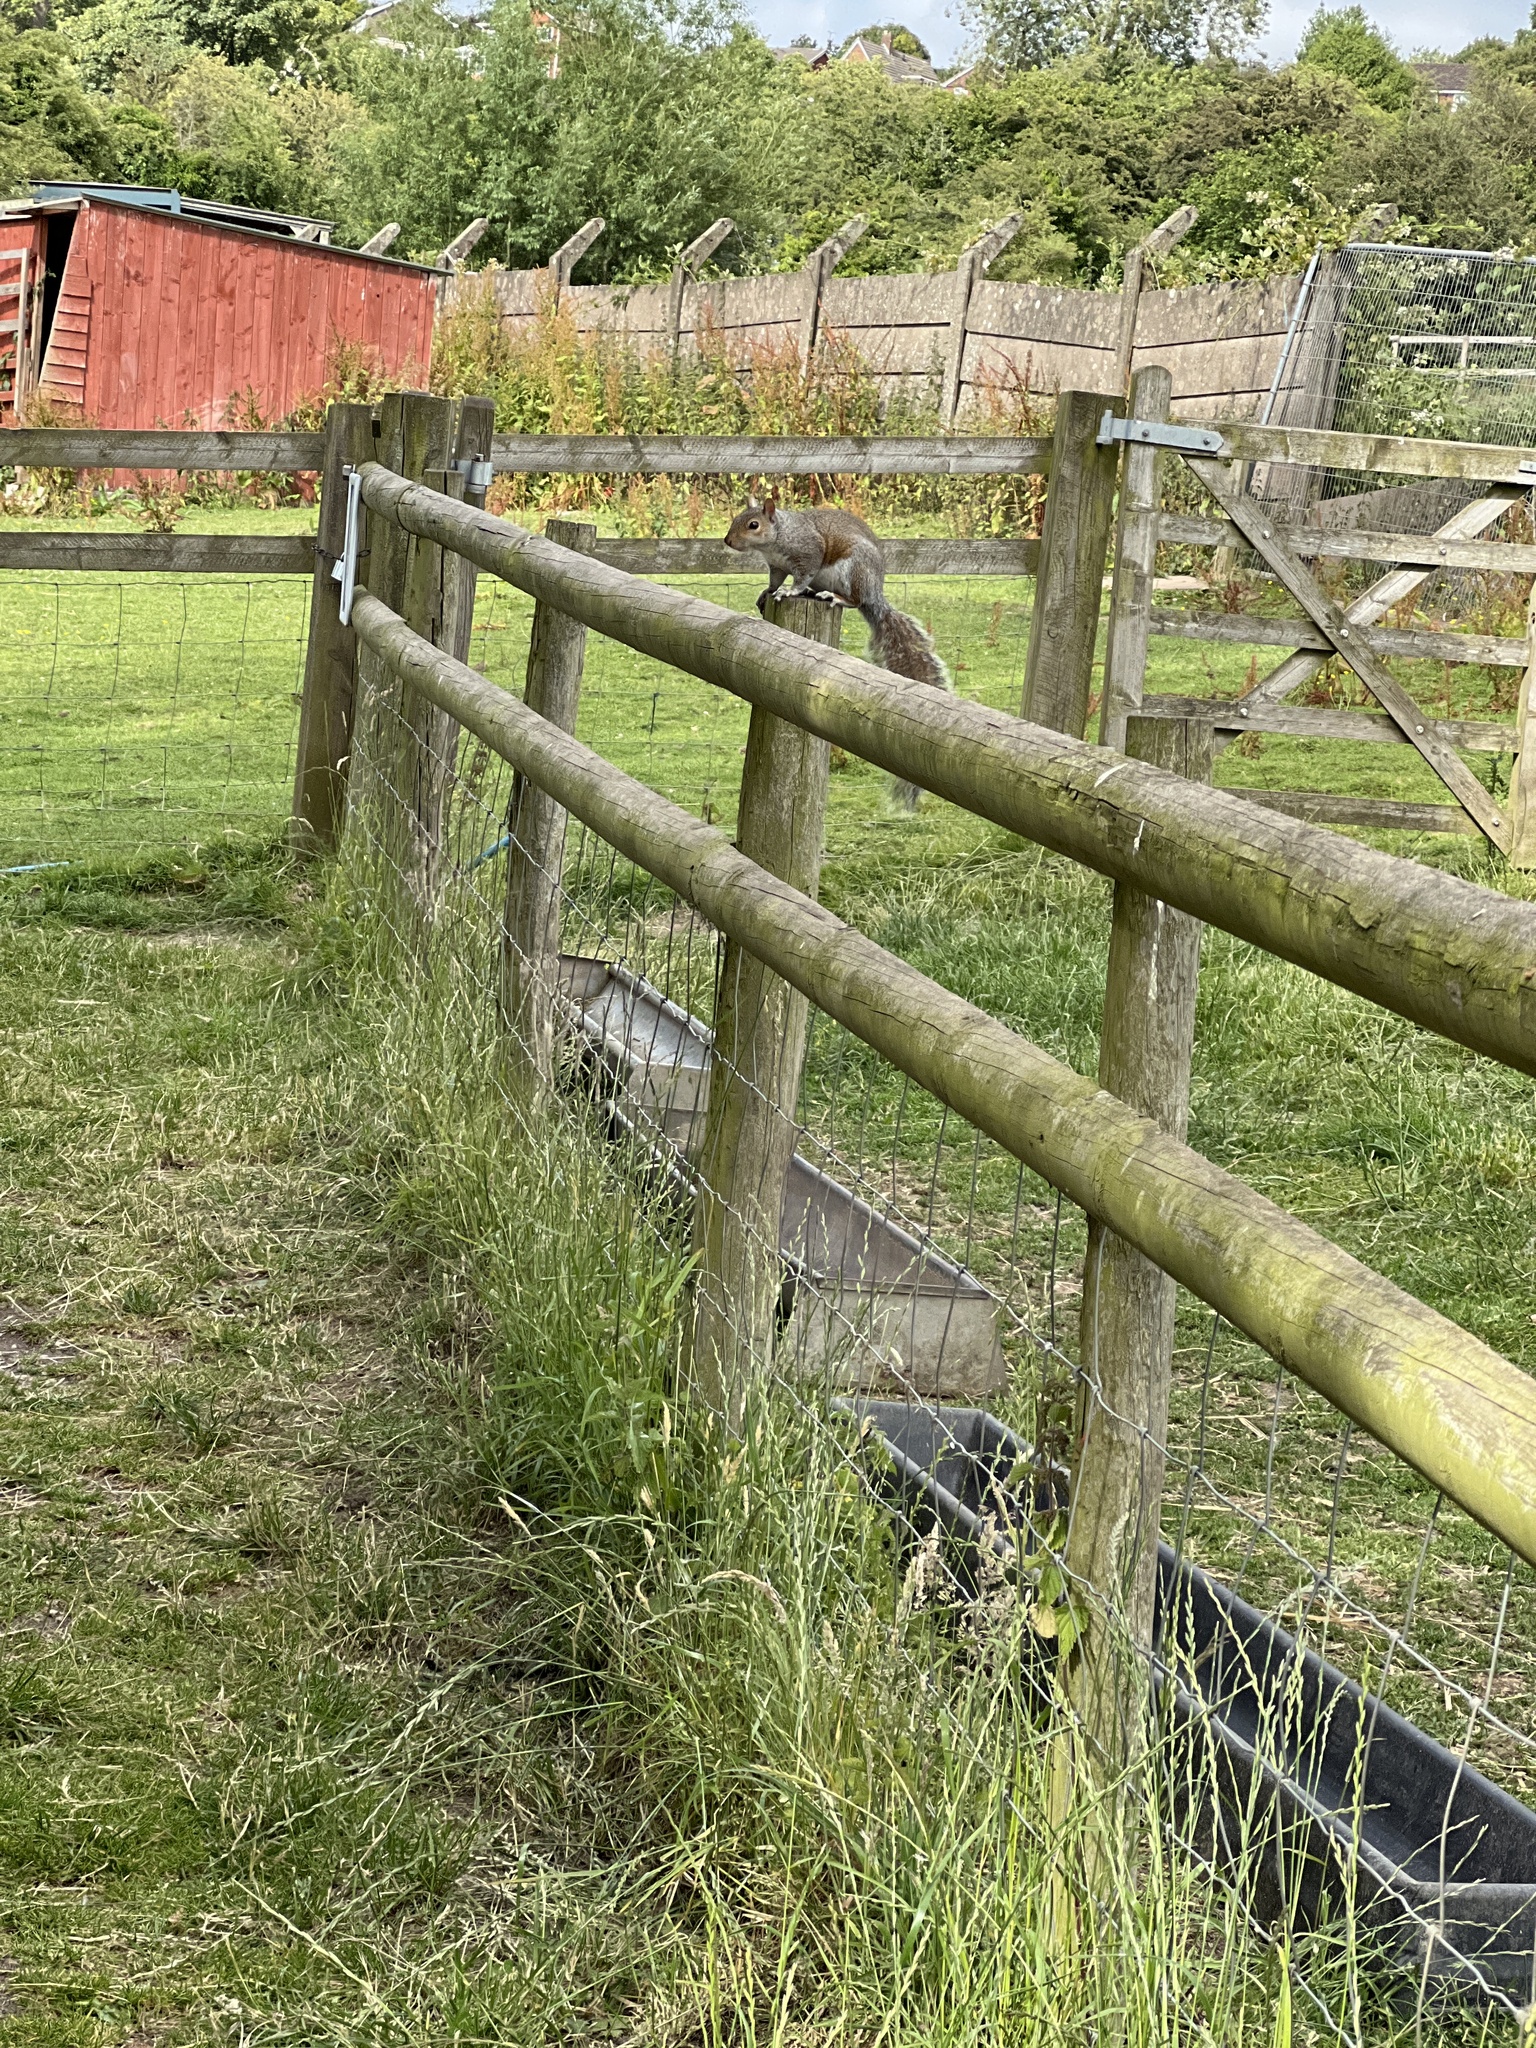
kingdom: Animalia
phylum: Chordata
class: Mammalia
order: Rodentia
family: Sciuridae
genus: Sciurus
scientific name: Sciurus carolinensis
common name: Eastern gray squirrel
